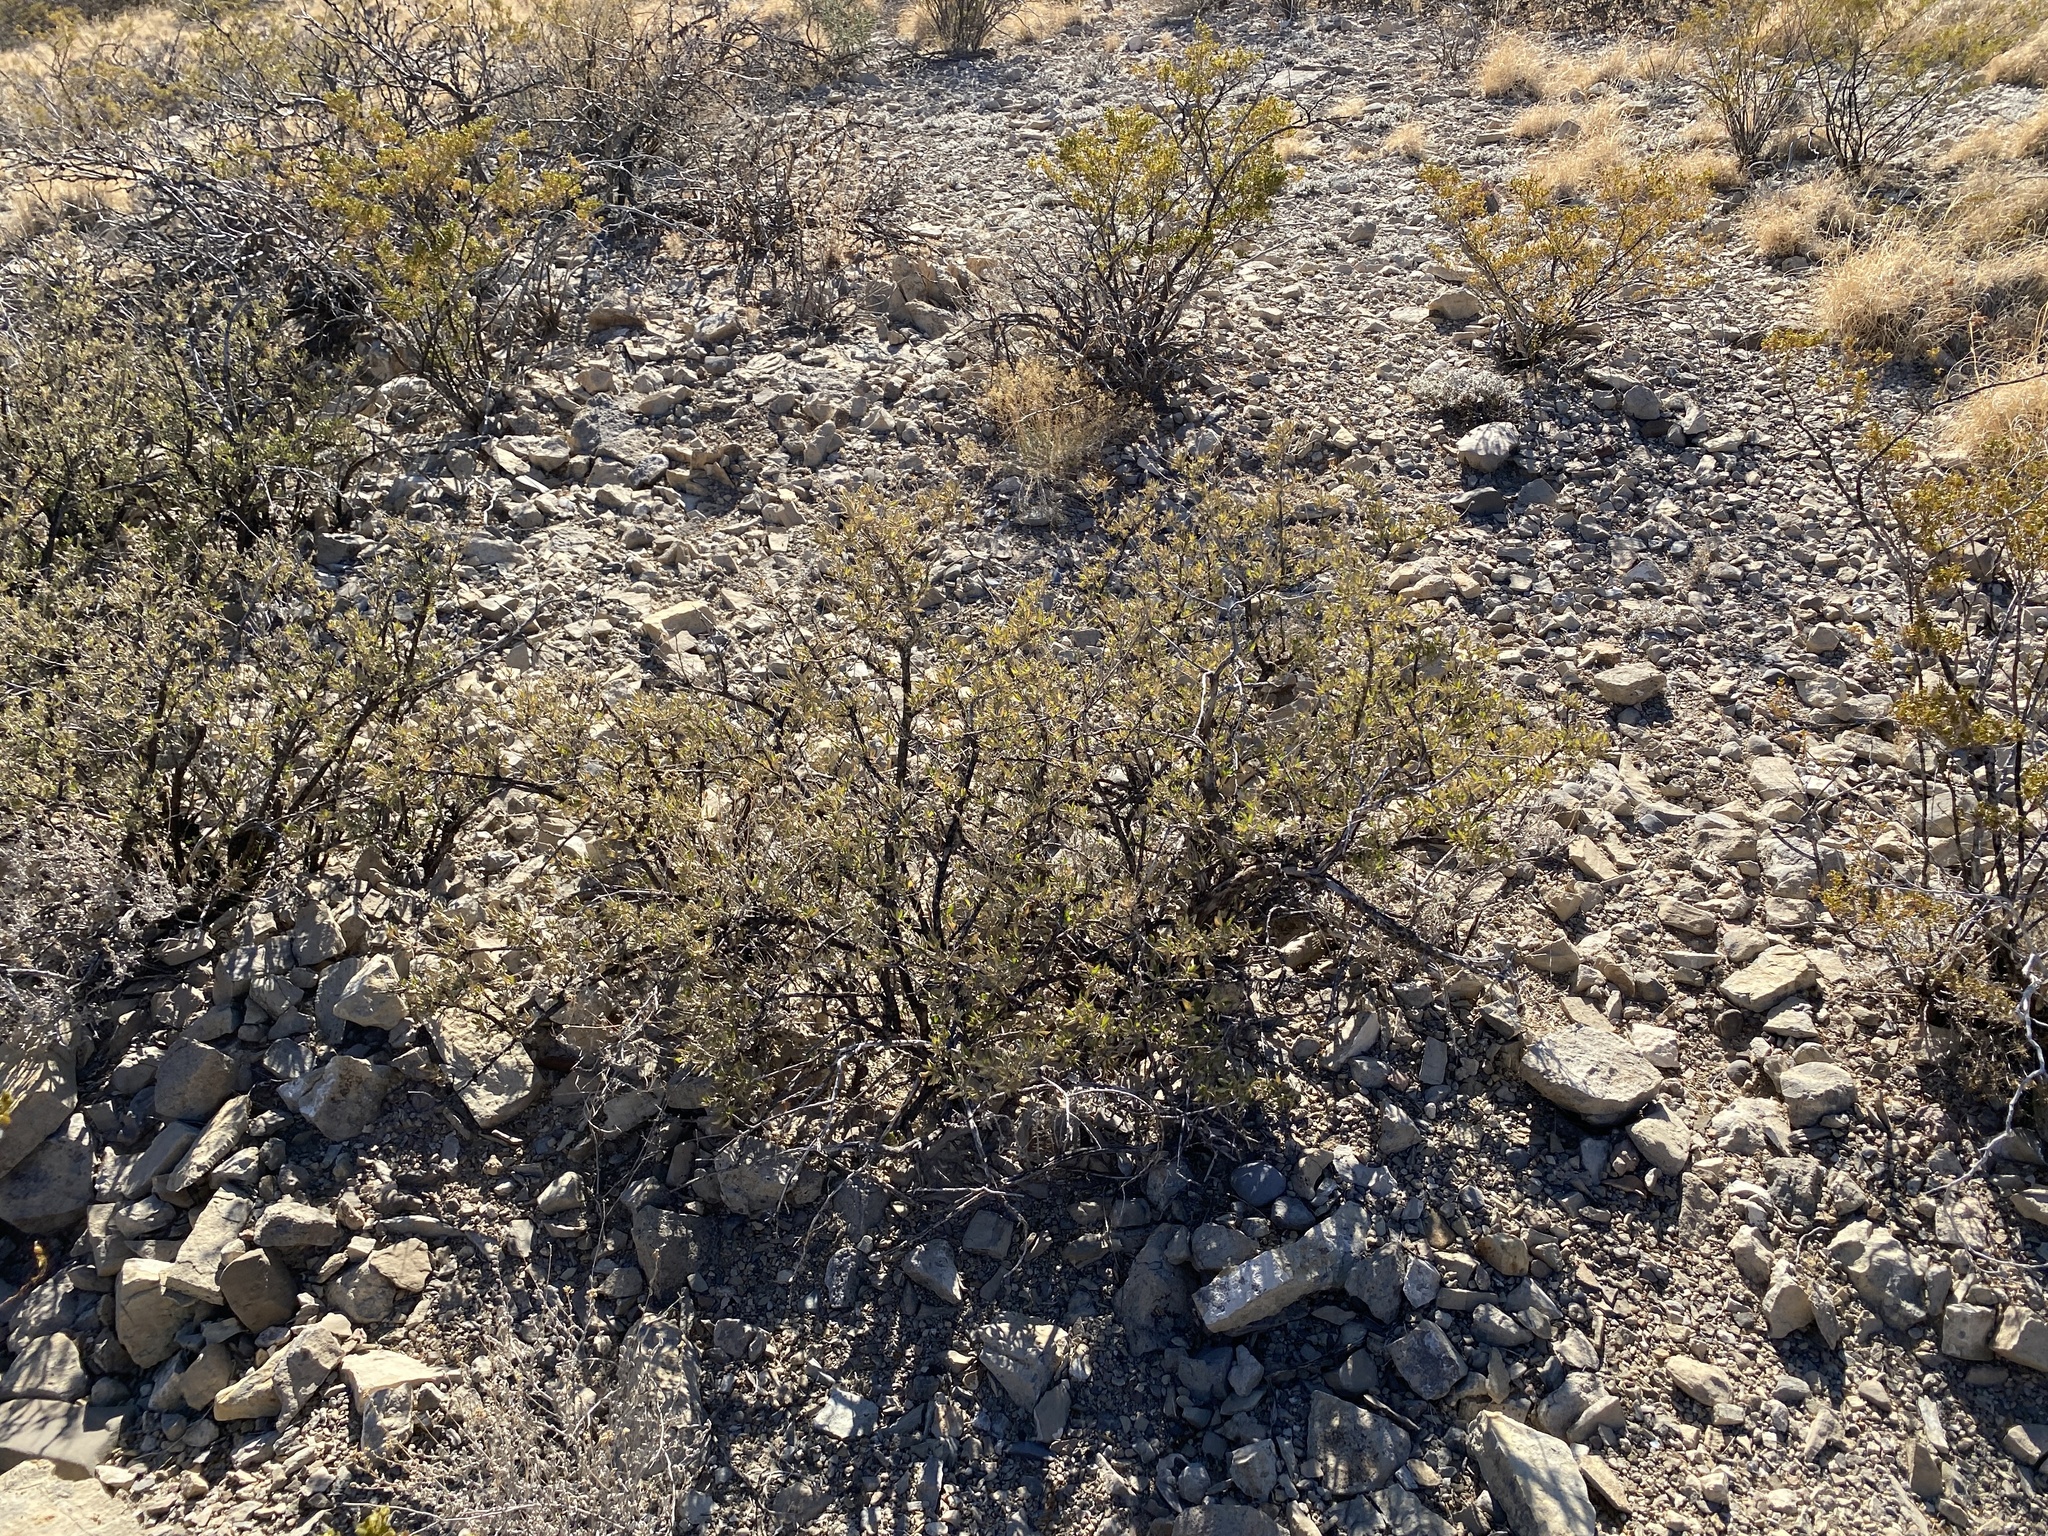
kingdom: Plantae
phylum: Tracheophyta
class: Magnoliopsida
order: Asterales
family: Asteraceae
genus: Flourensia
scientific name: Flourensia cernua
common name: Varnishbush
